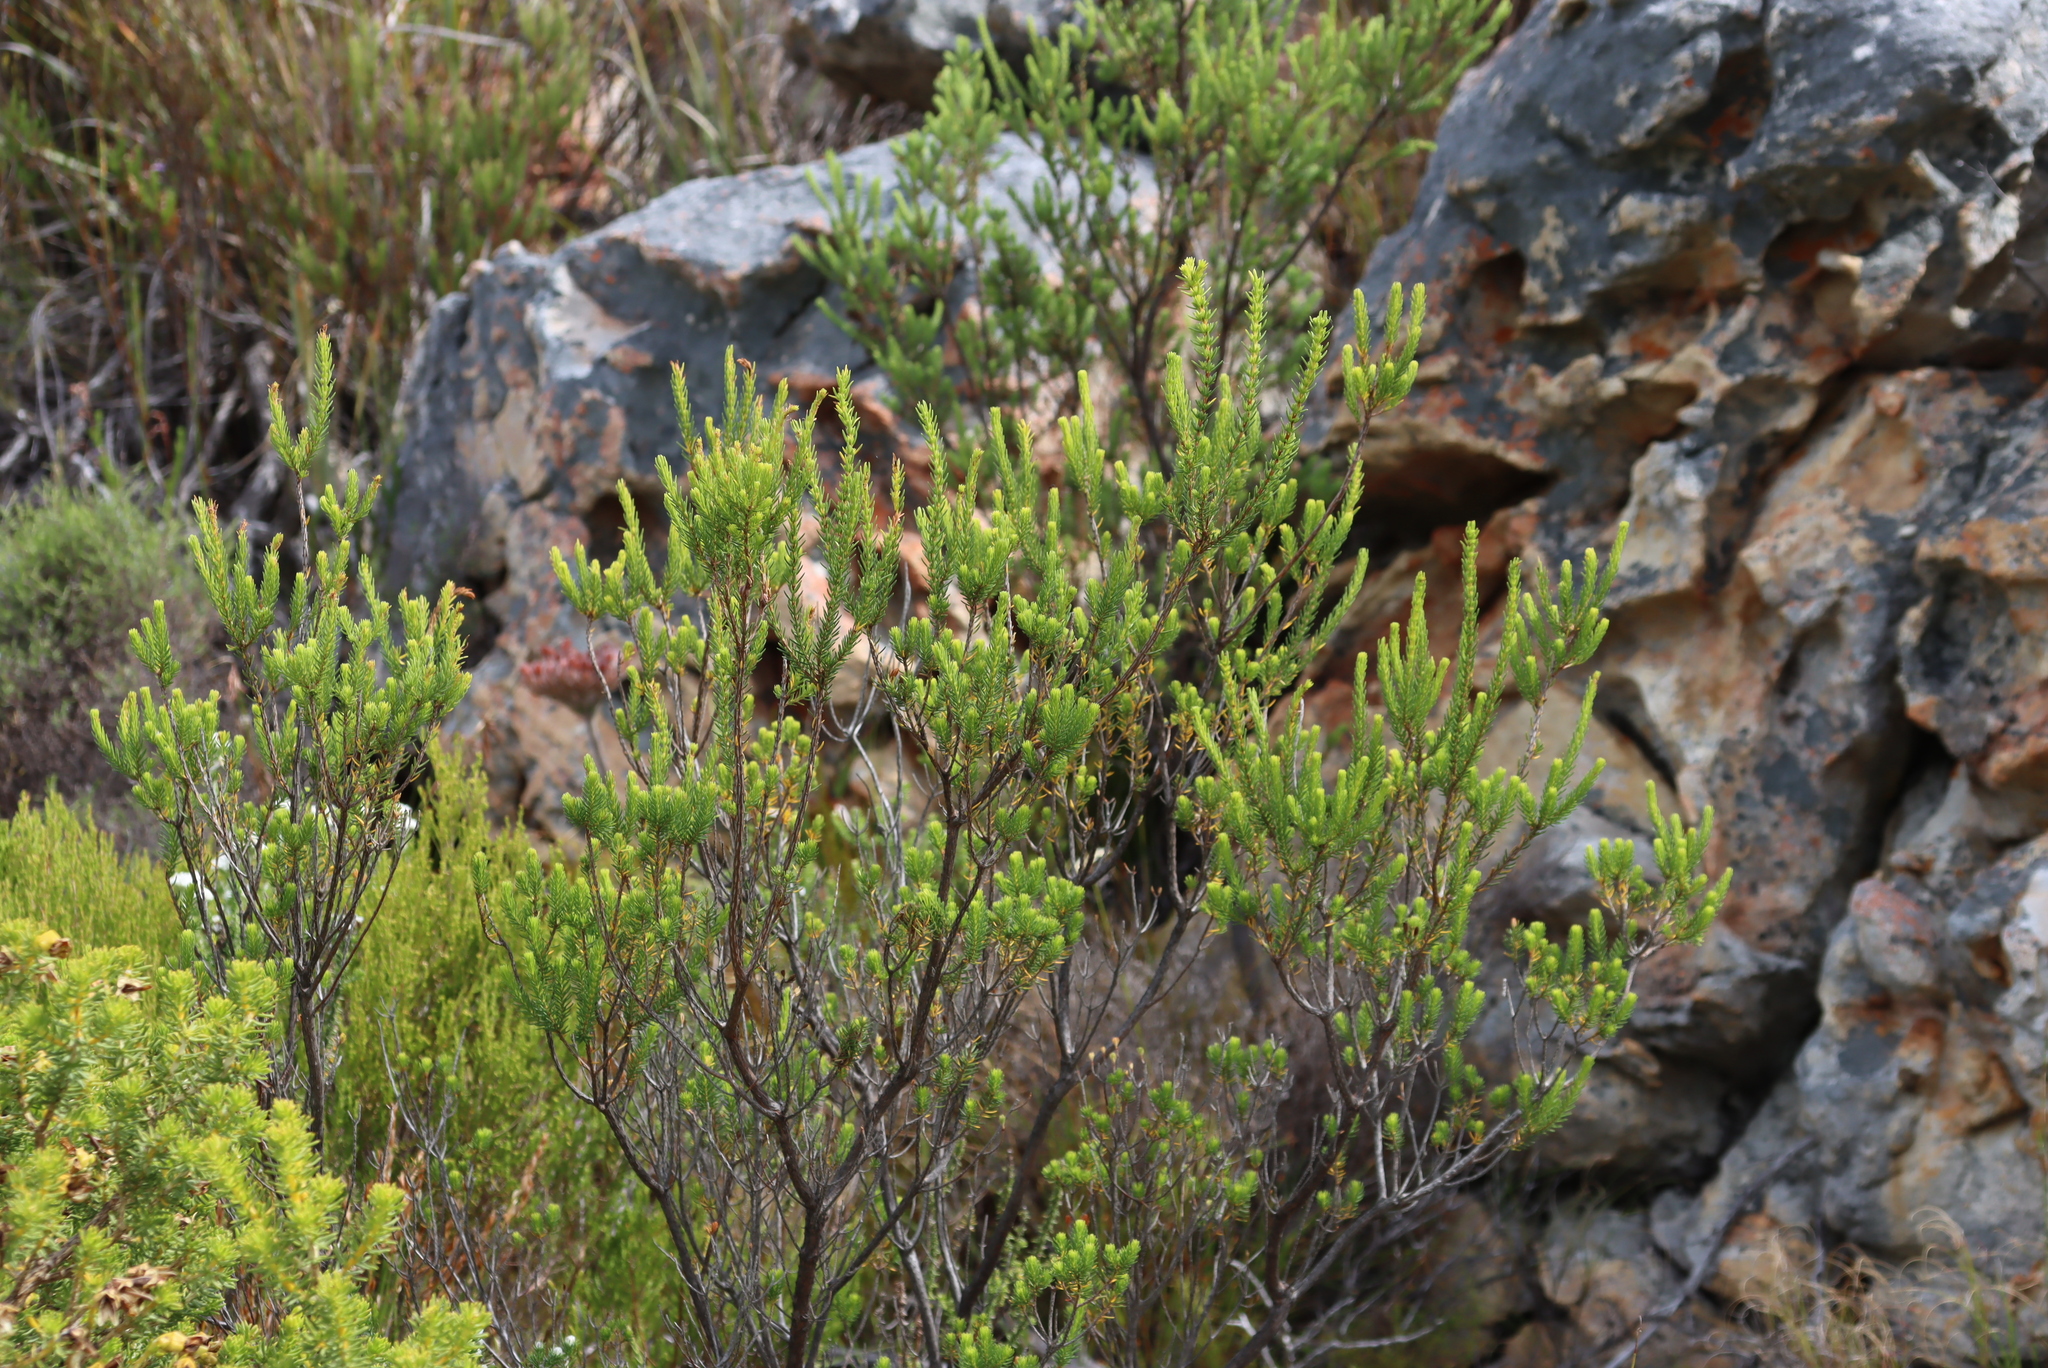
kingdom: Plantae
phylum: Tracheophyta
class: Magnoliopsida
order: Ericales
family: Ericaceae
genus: Erica
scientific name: Erica mammosa
